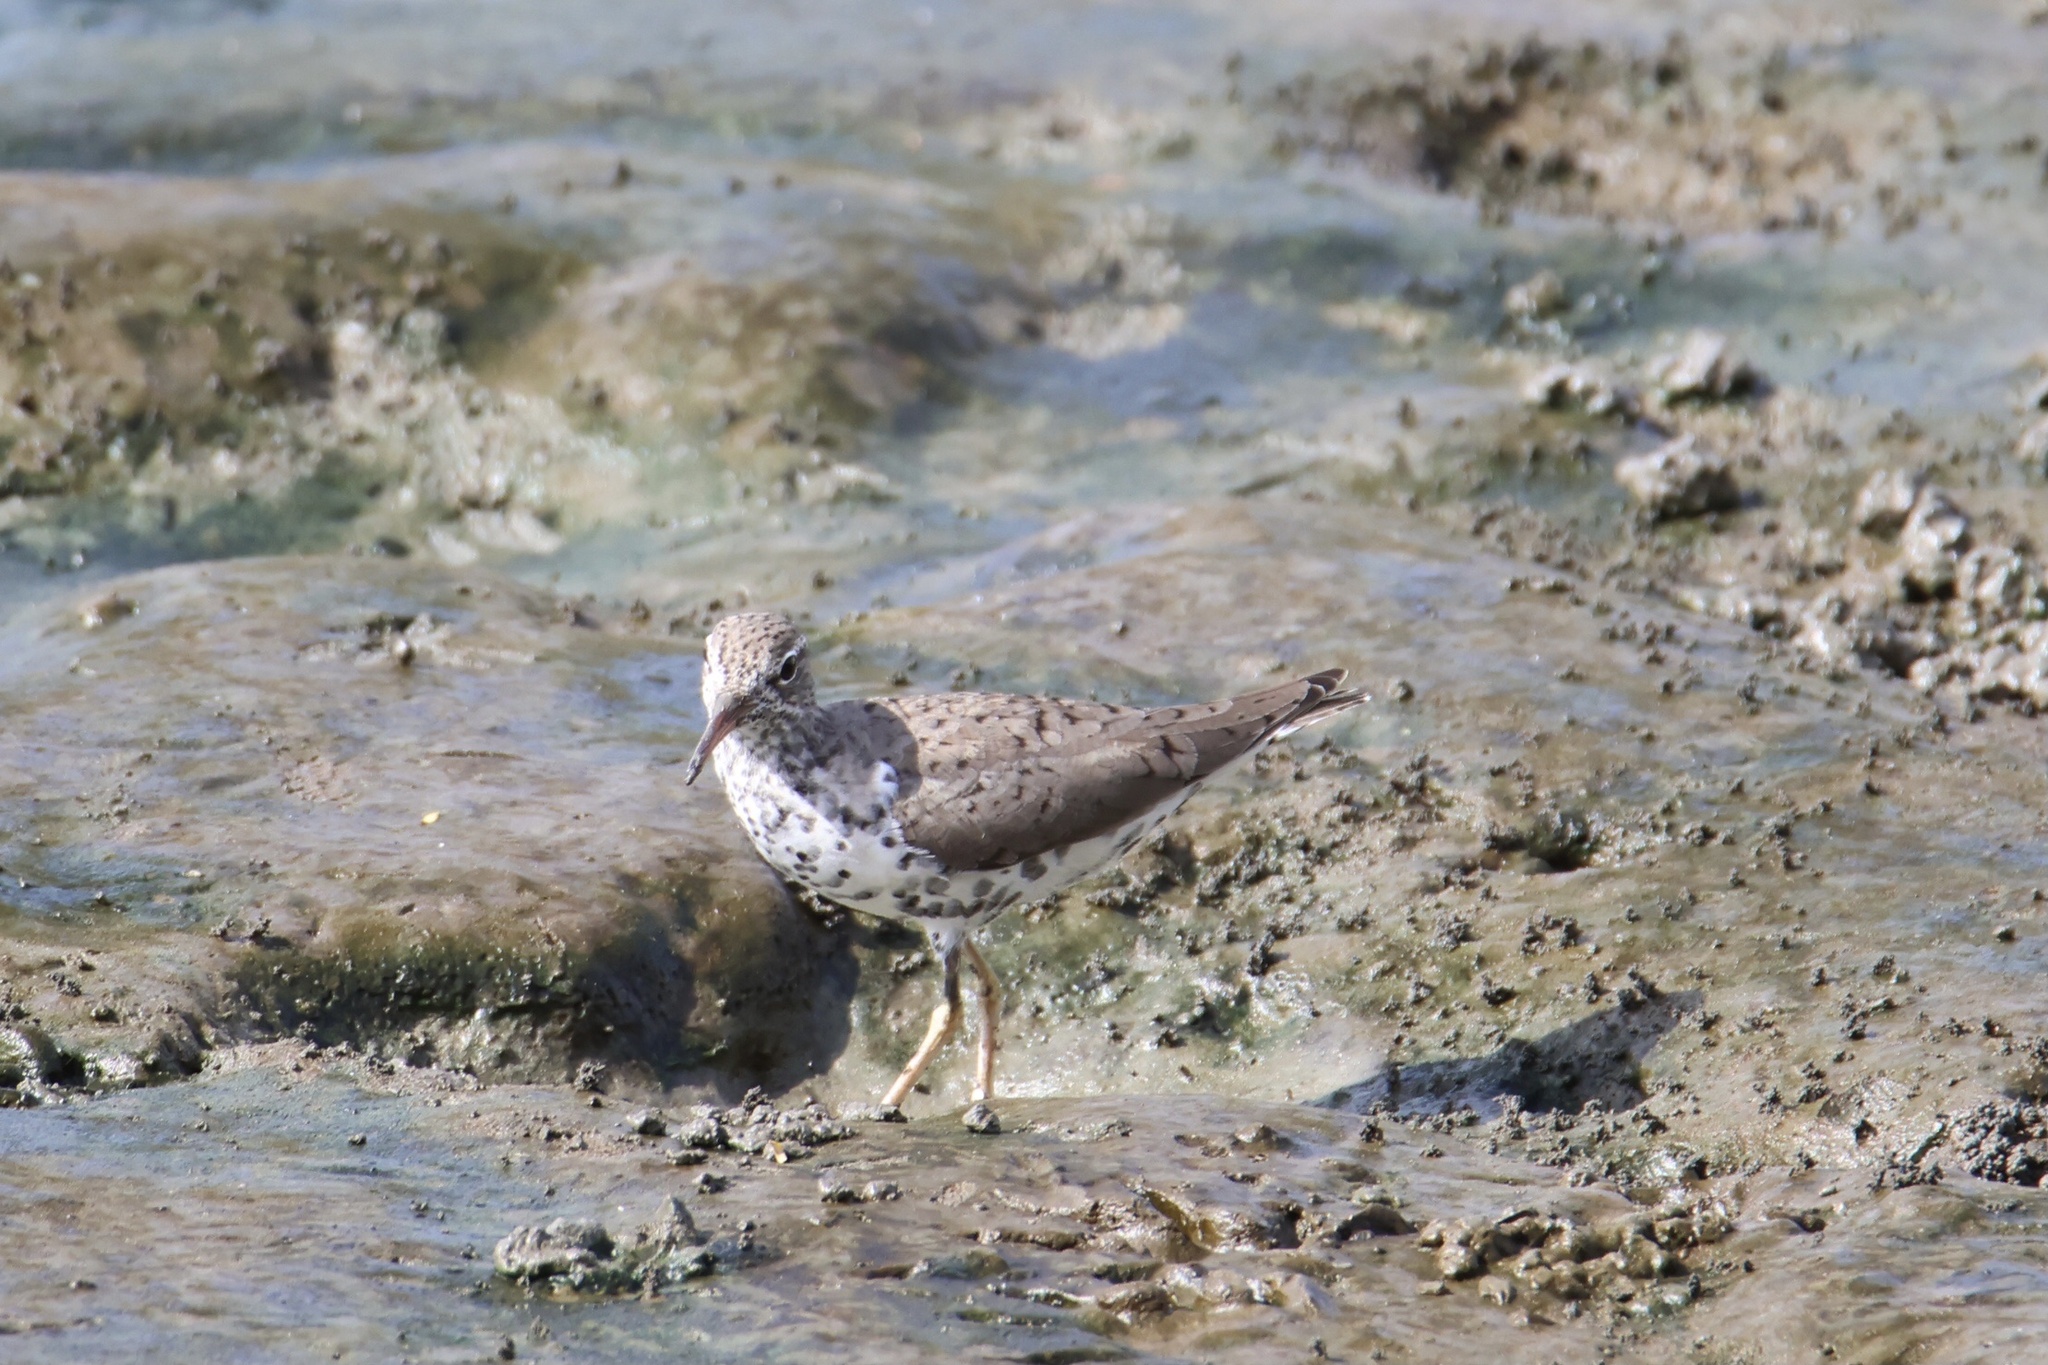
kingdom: Animalia
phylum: Chordata
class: Aves
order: Charadriiformes
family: Scolopacidae
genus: Actitis
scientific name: Actitis macularius
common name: Spotted sandpiper
